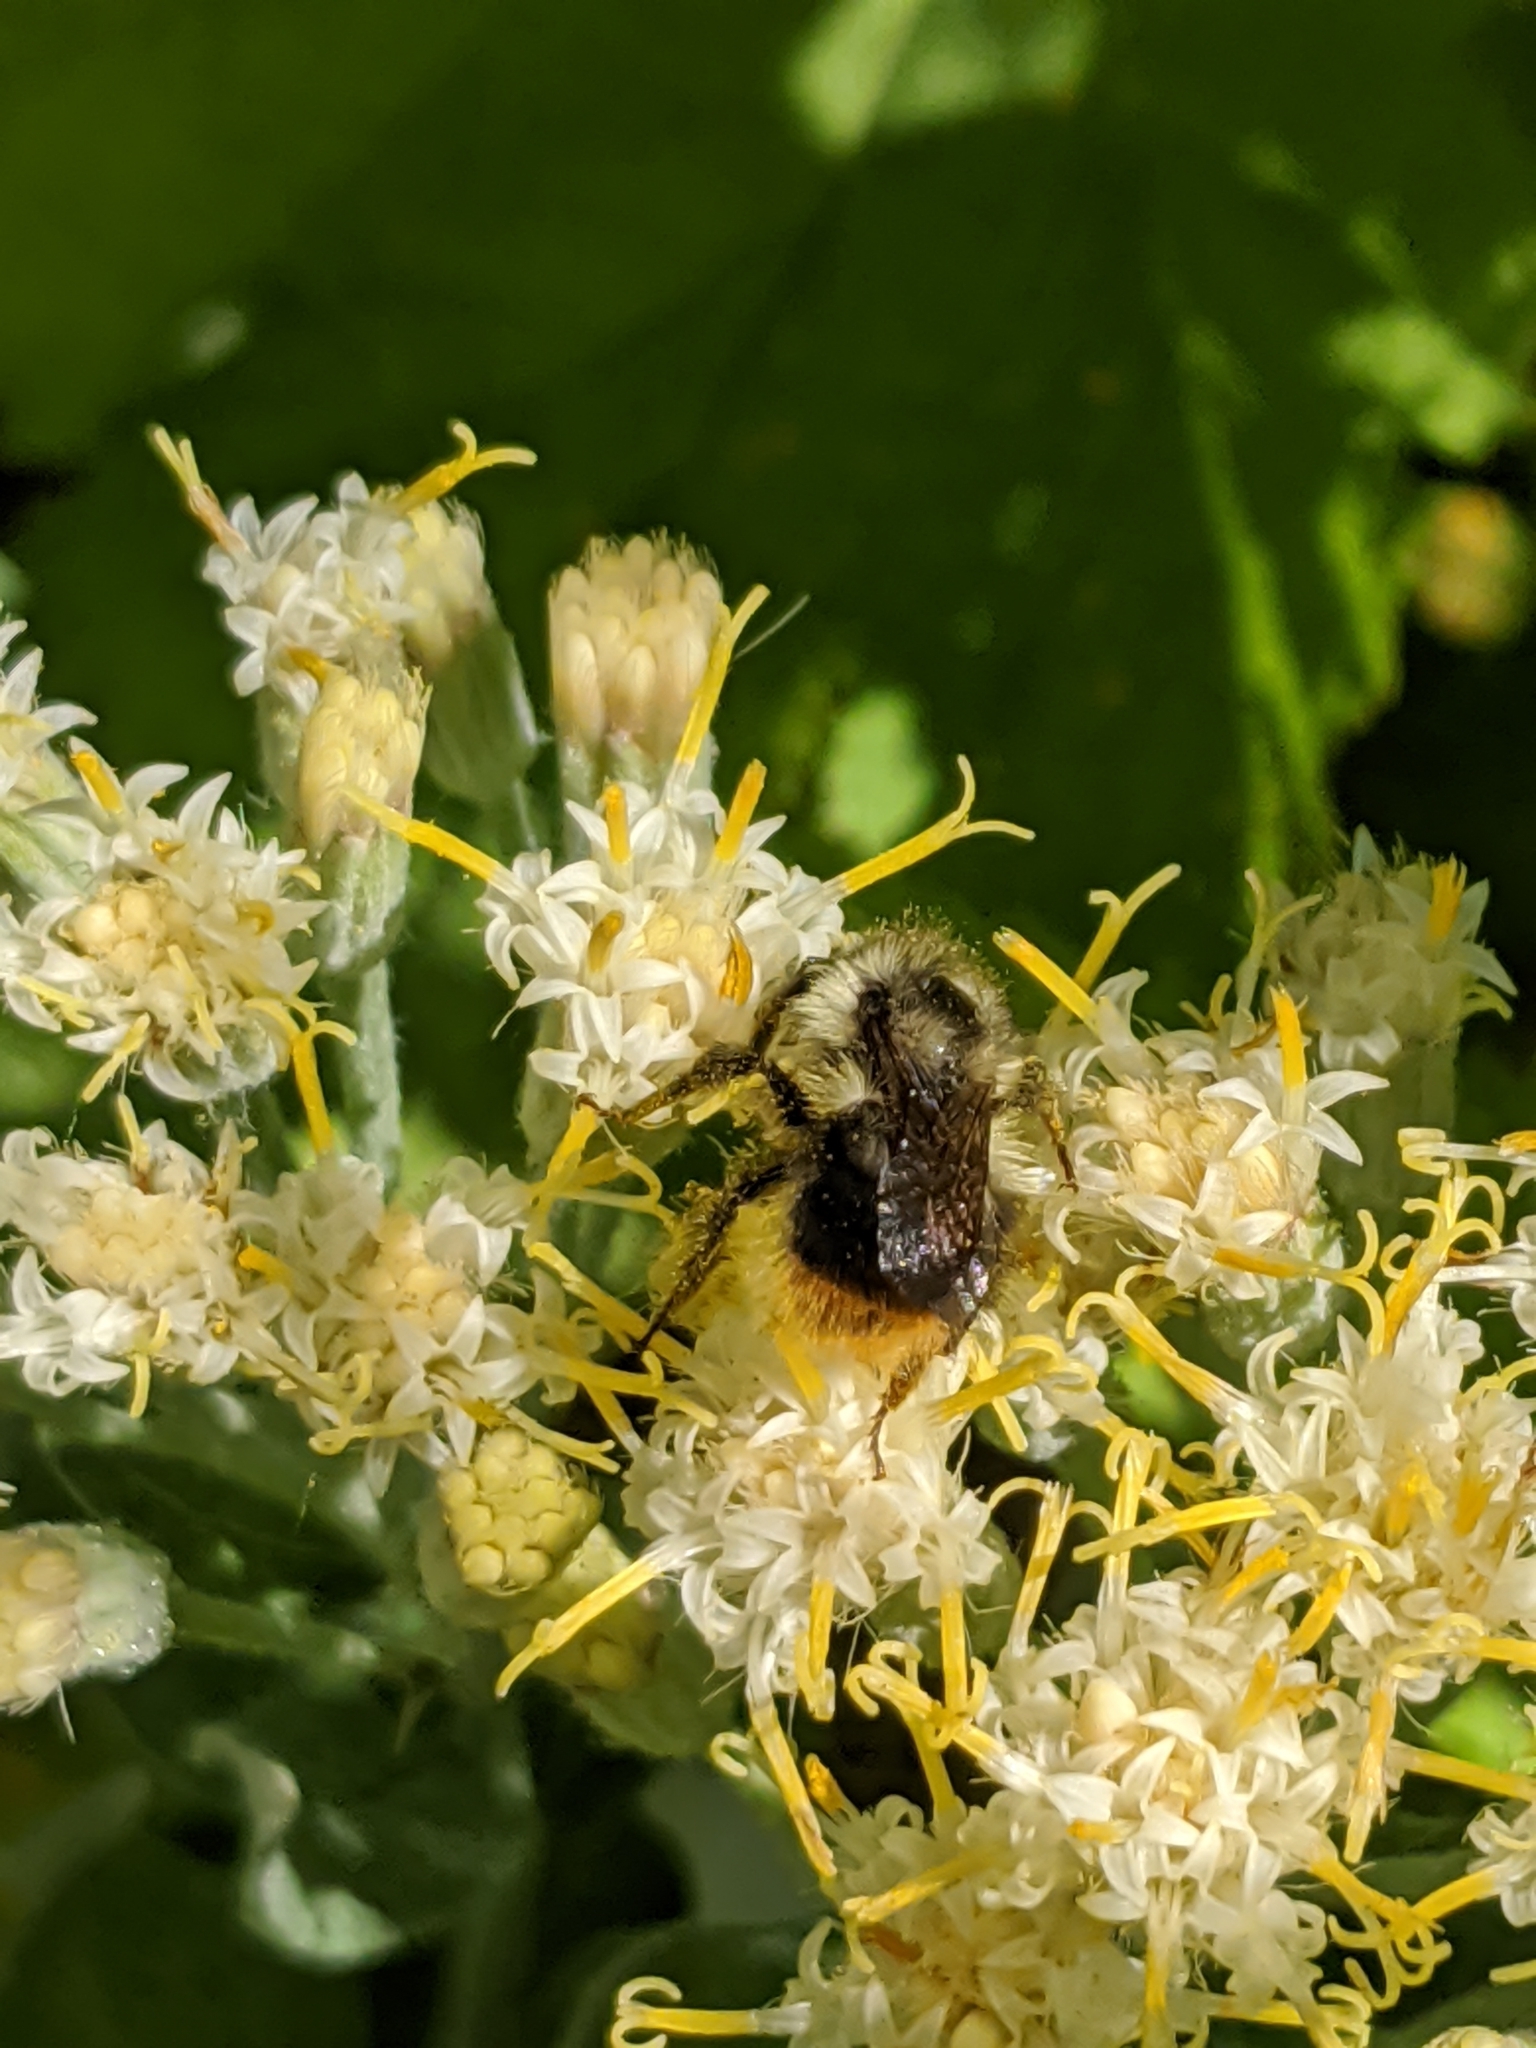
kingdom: Animalia
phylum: Arthropoda
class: Insecta
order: Hymenoptera
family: Apidae
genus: Bombus
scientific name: Bombus mixtus
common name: Fuzzy-horned bumble bee
